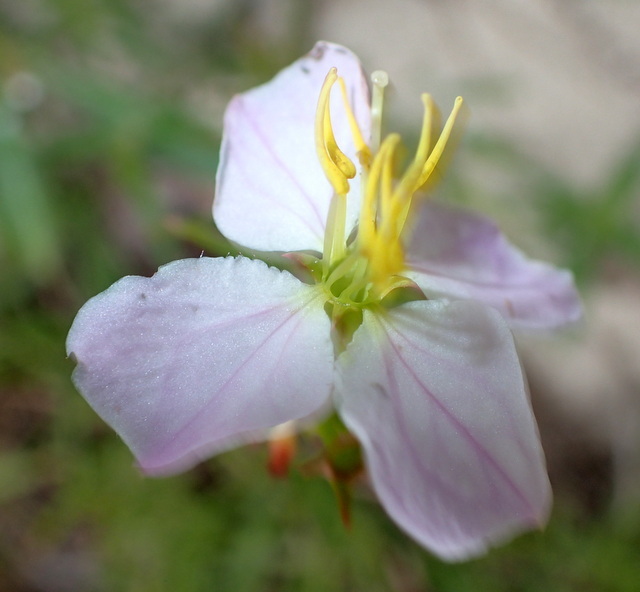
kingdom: Plantae
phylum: Tracheophyta
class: Magnoliopsida
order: Myrtales
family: Melastomataceae
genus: Rhexia
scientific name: Rhexia mariana
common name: Dull meadow-pitcher
